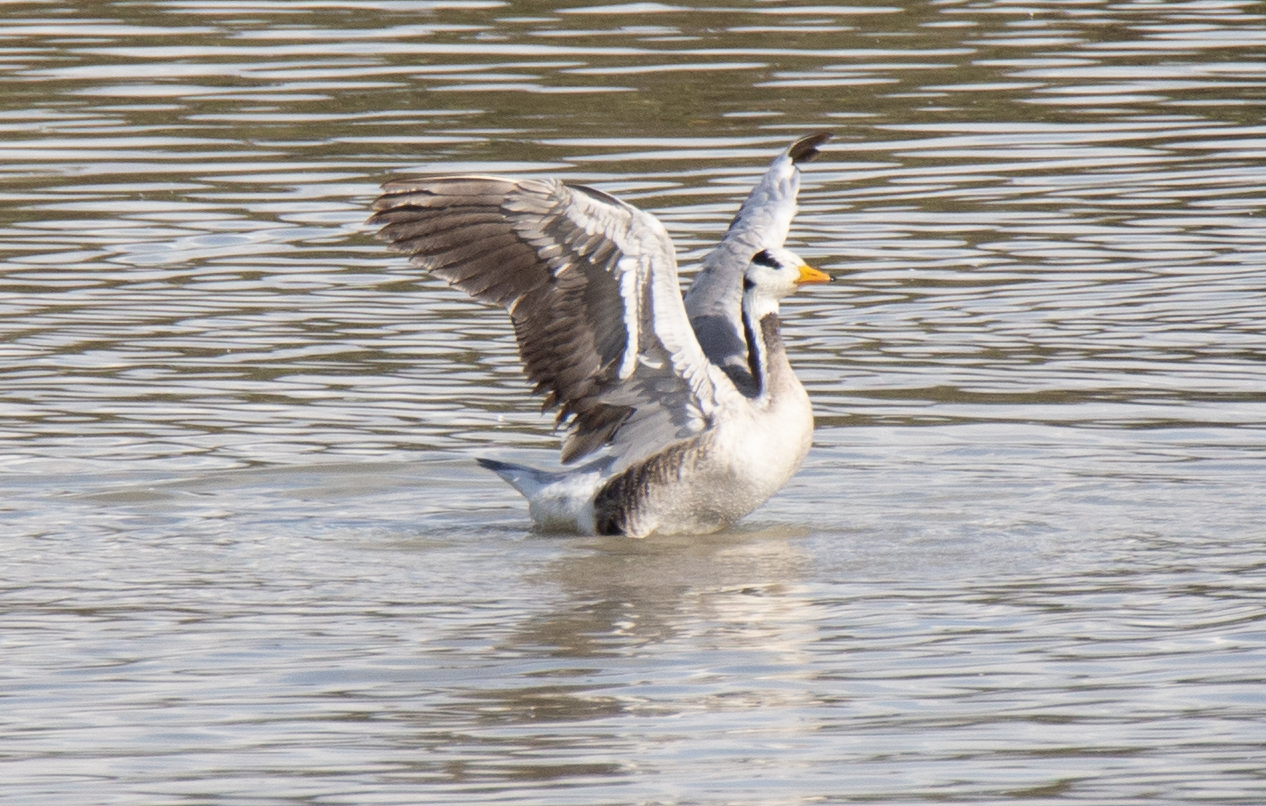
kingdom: Animalia
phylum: Chordata
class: Aves
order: Anseriformes
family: Anatidae
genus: Anser
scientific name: Anser indicus
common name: Bar-headed goose
